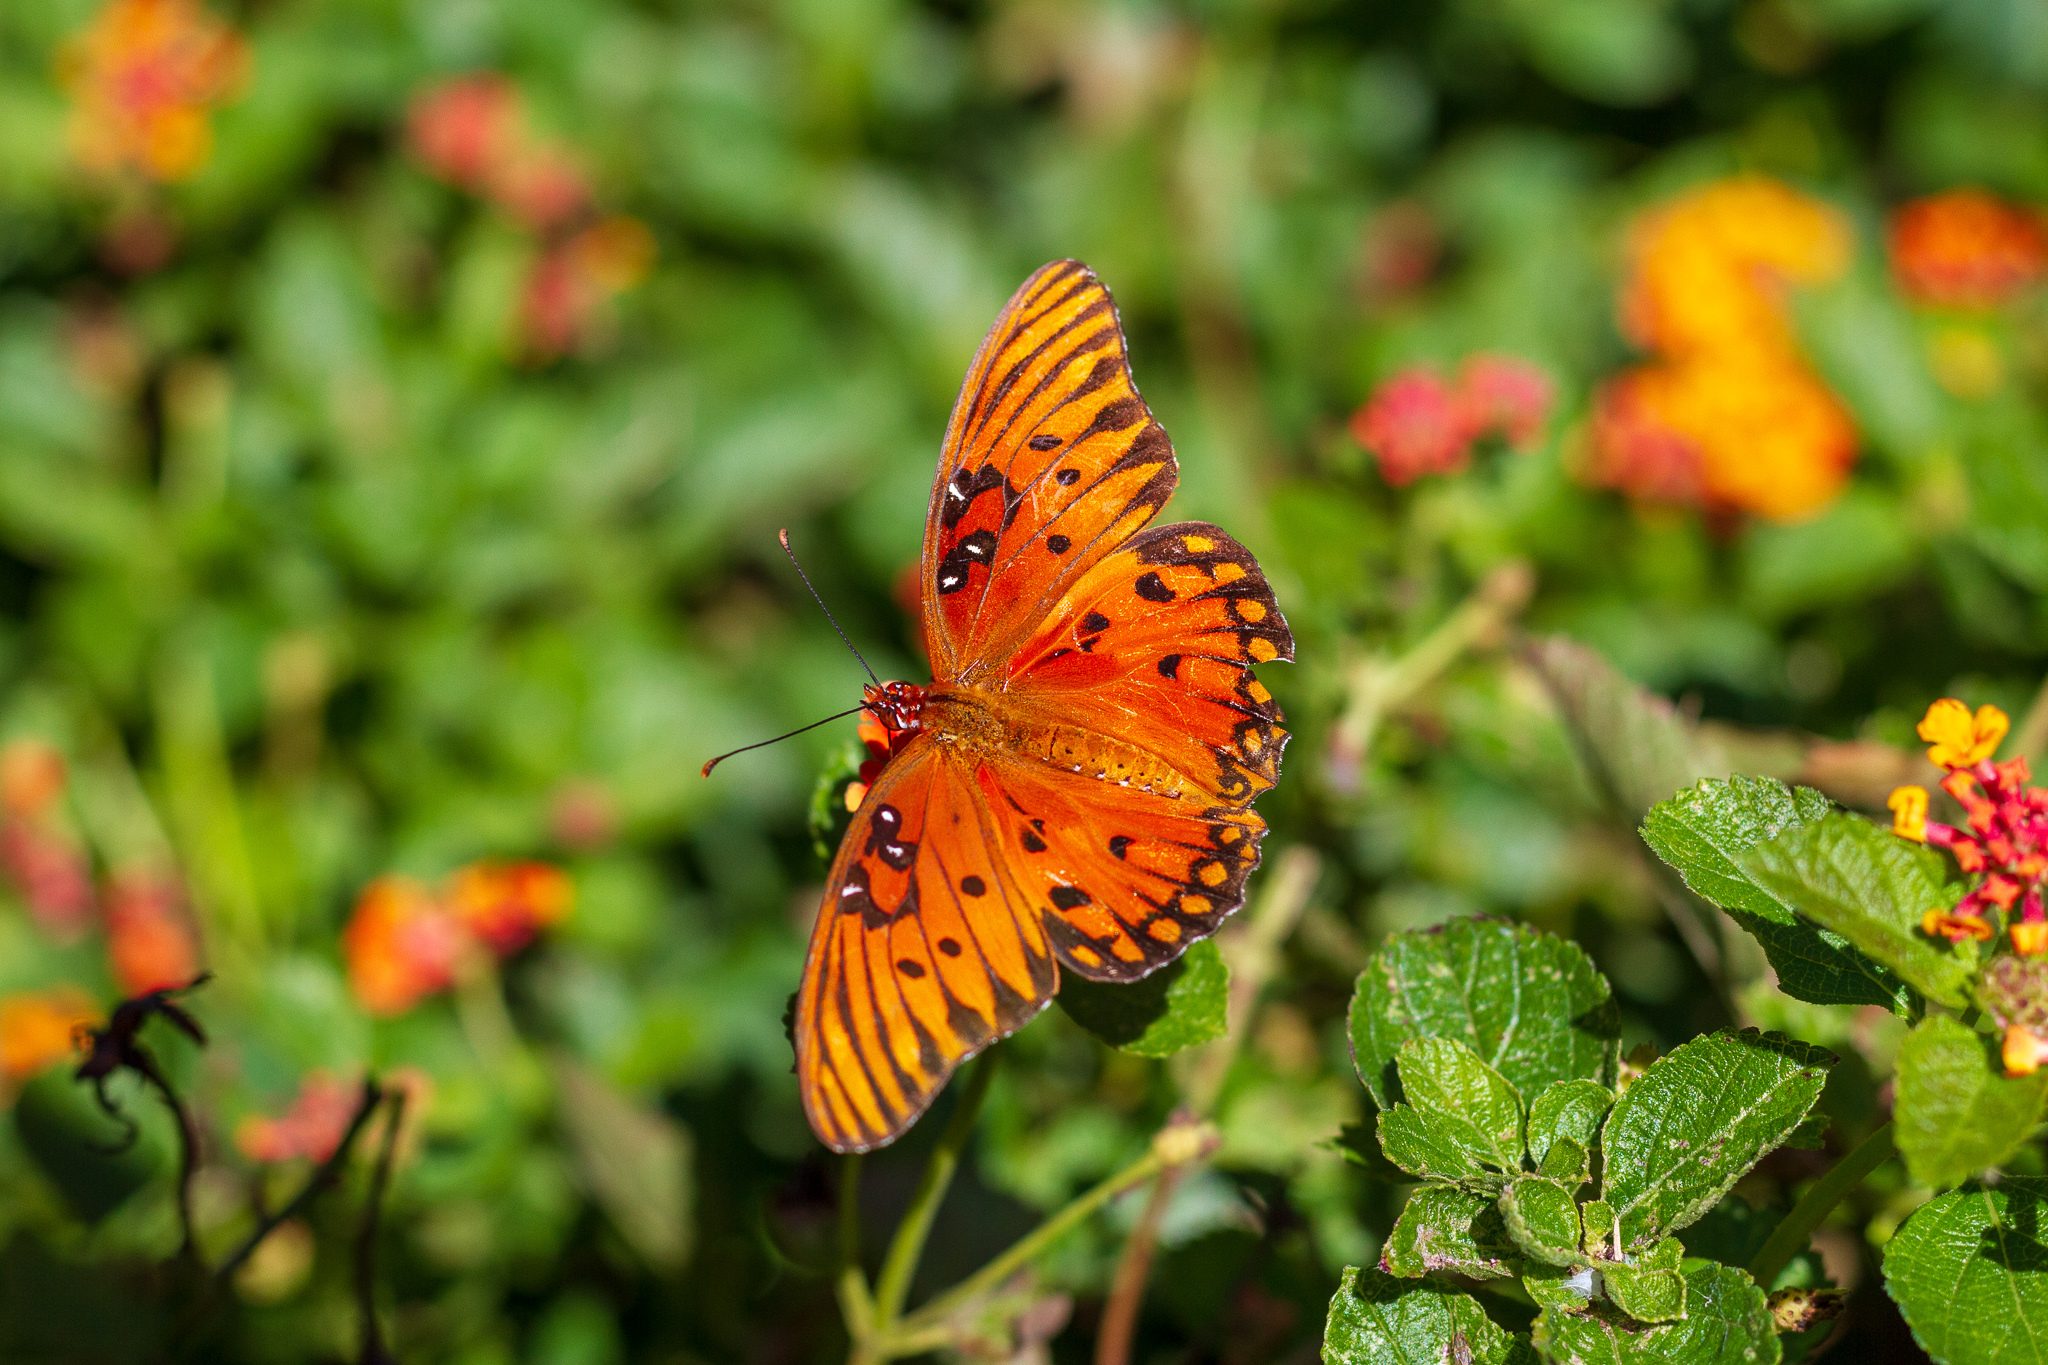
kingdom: Animalia
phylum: Arthropoda
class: Insecta
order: Lepidoptera
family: Nymphalidae
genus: Dione
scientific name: Dione vanillae
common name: Gulf fritillary
